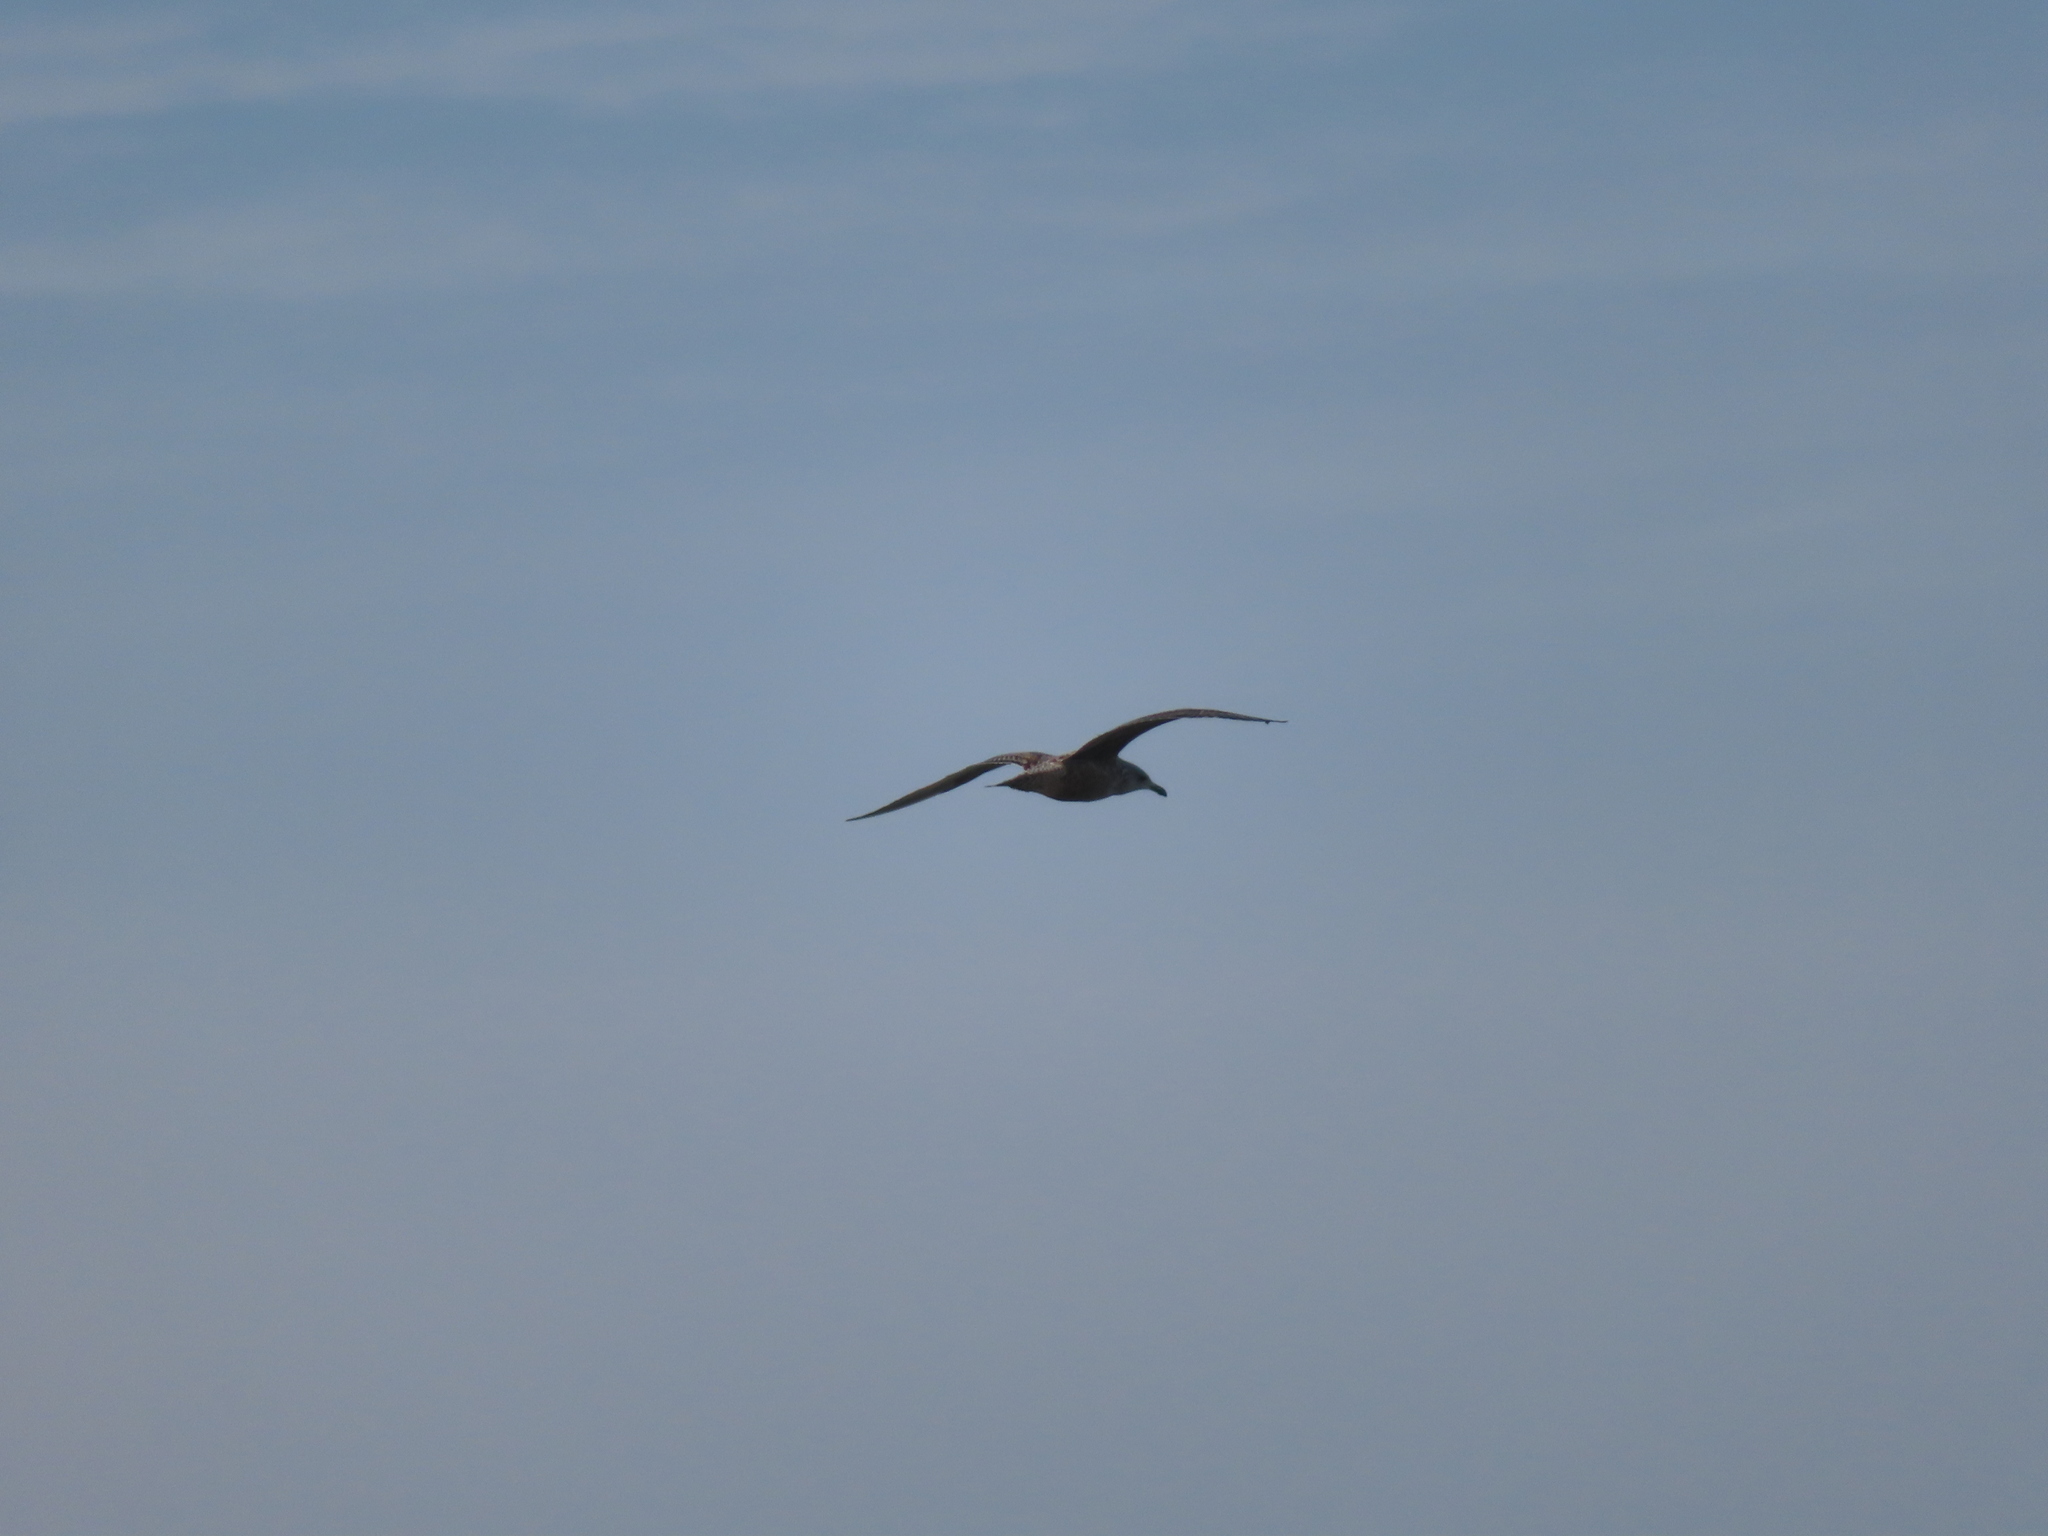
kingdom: Animalia
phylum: Chordata
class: Aves
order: Charadriiformes
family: Laridae
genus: Larus
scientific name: Larus argentatus
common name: Herring gull
